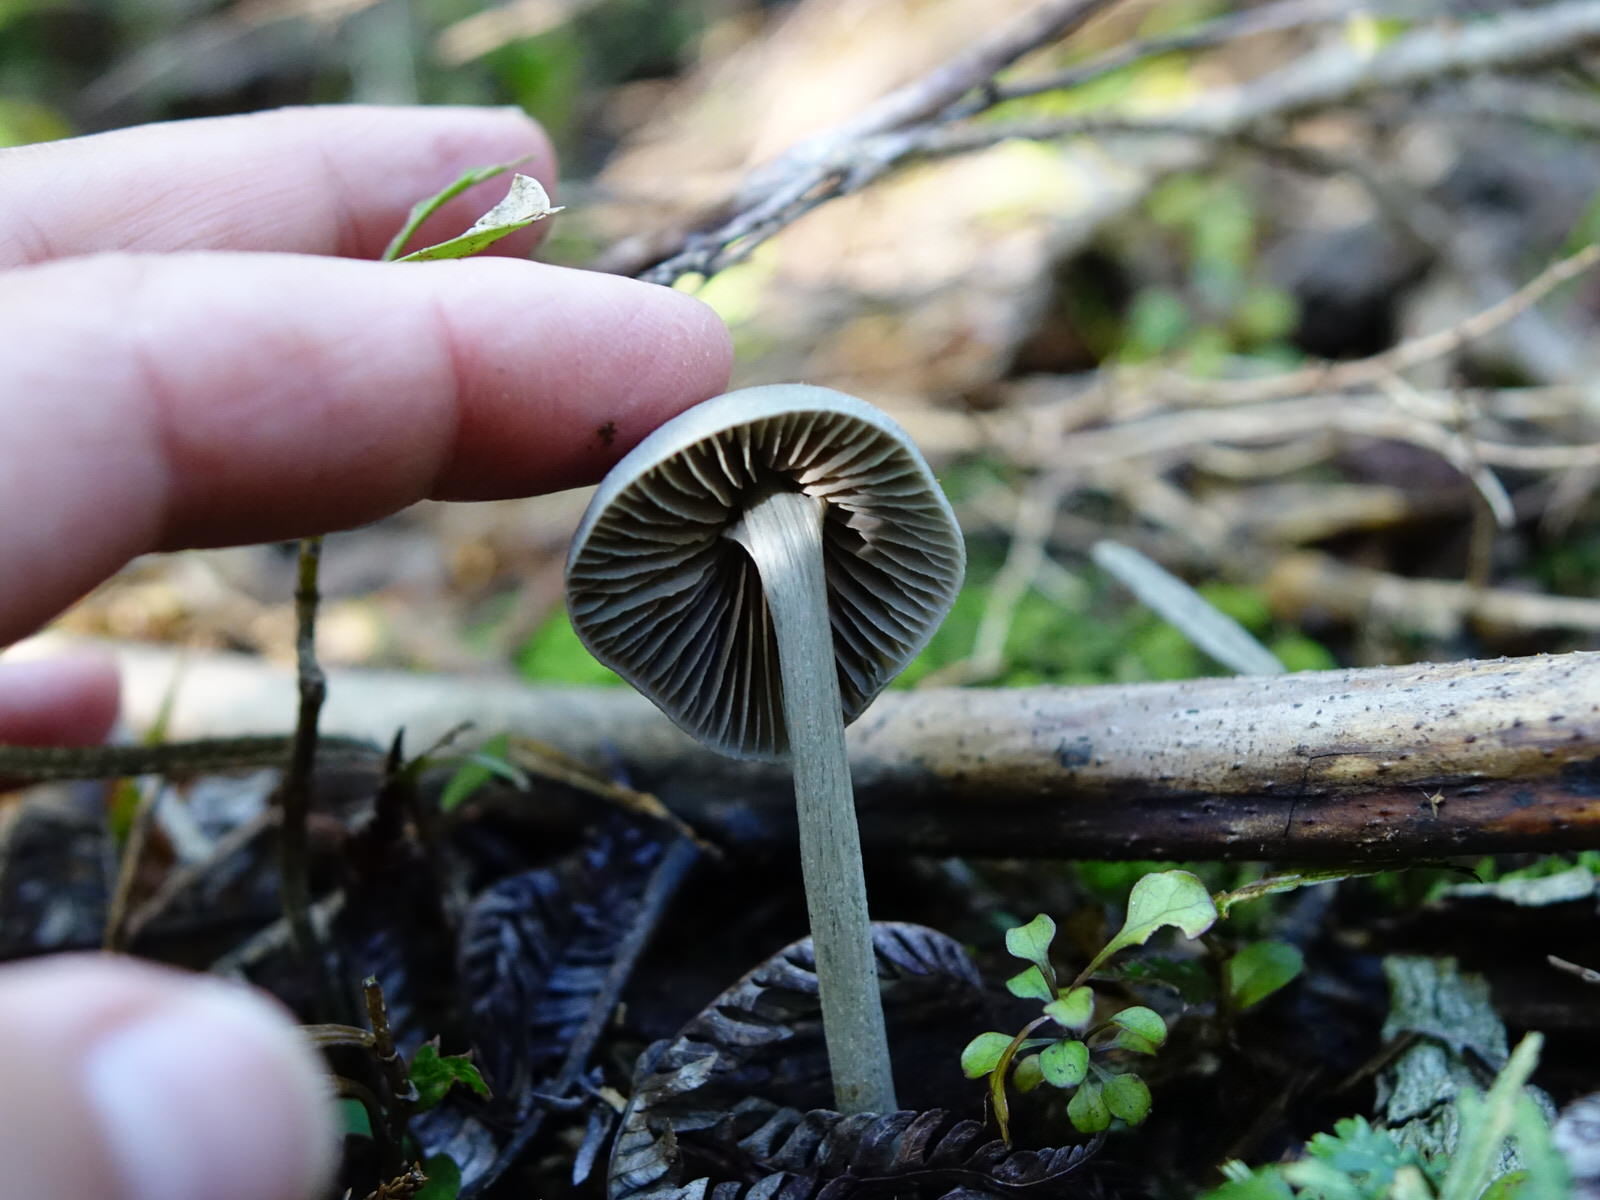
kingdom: Fungi
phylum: Basidiomycota
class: Agaricomycetes
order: Agaricales
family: Entolomataceae
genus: Entoloma
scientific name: Entoloma canoconicum
